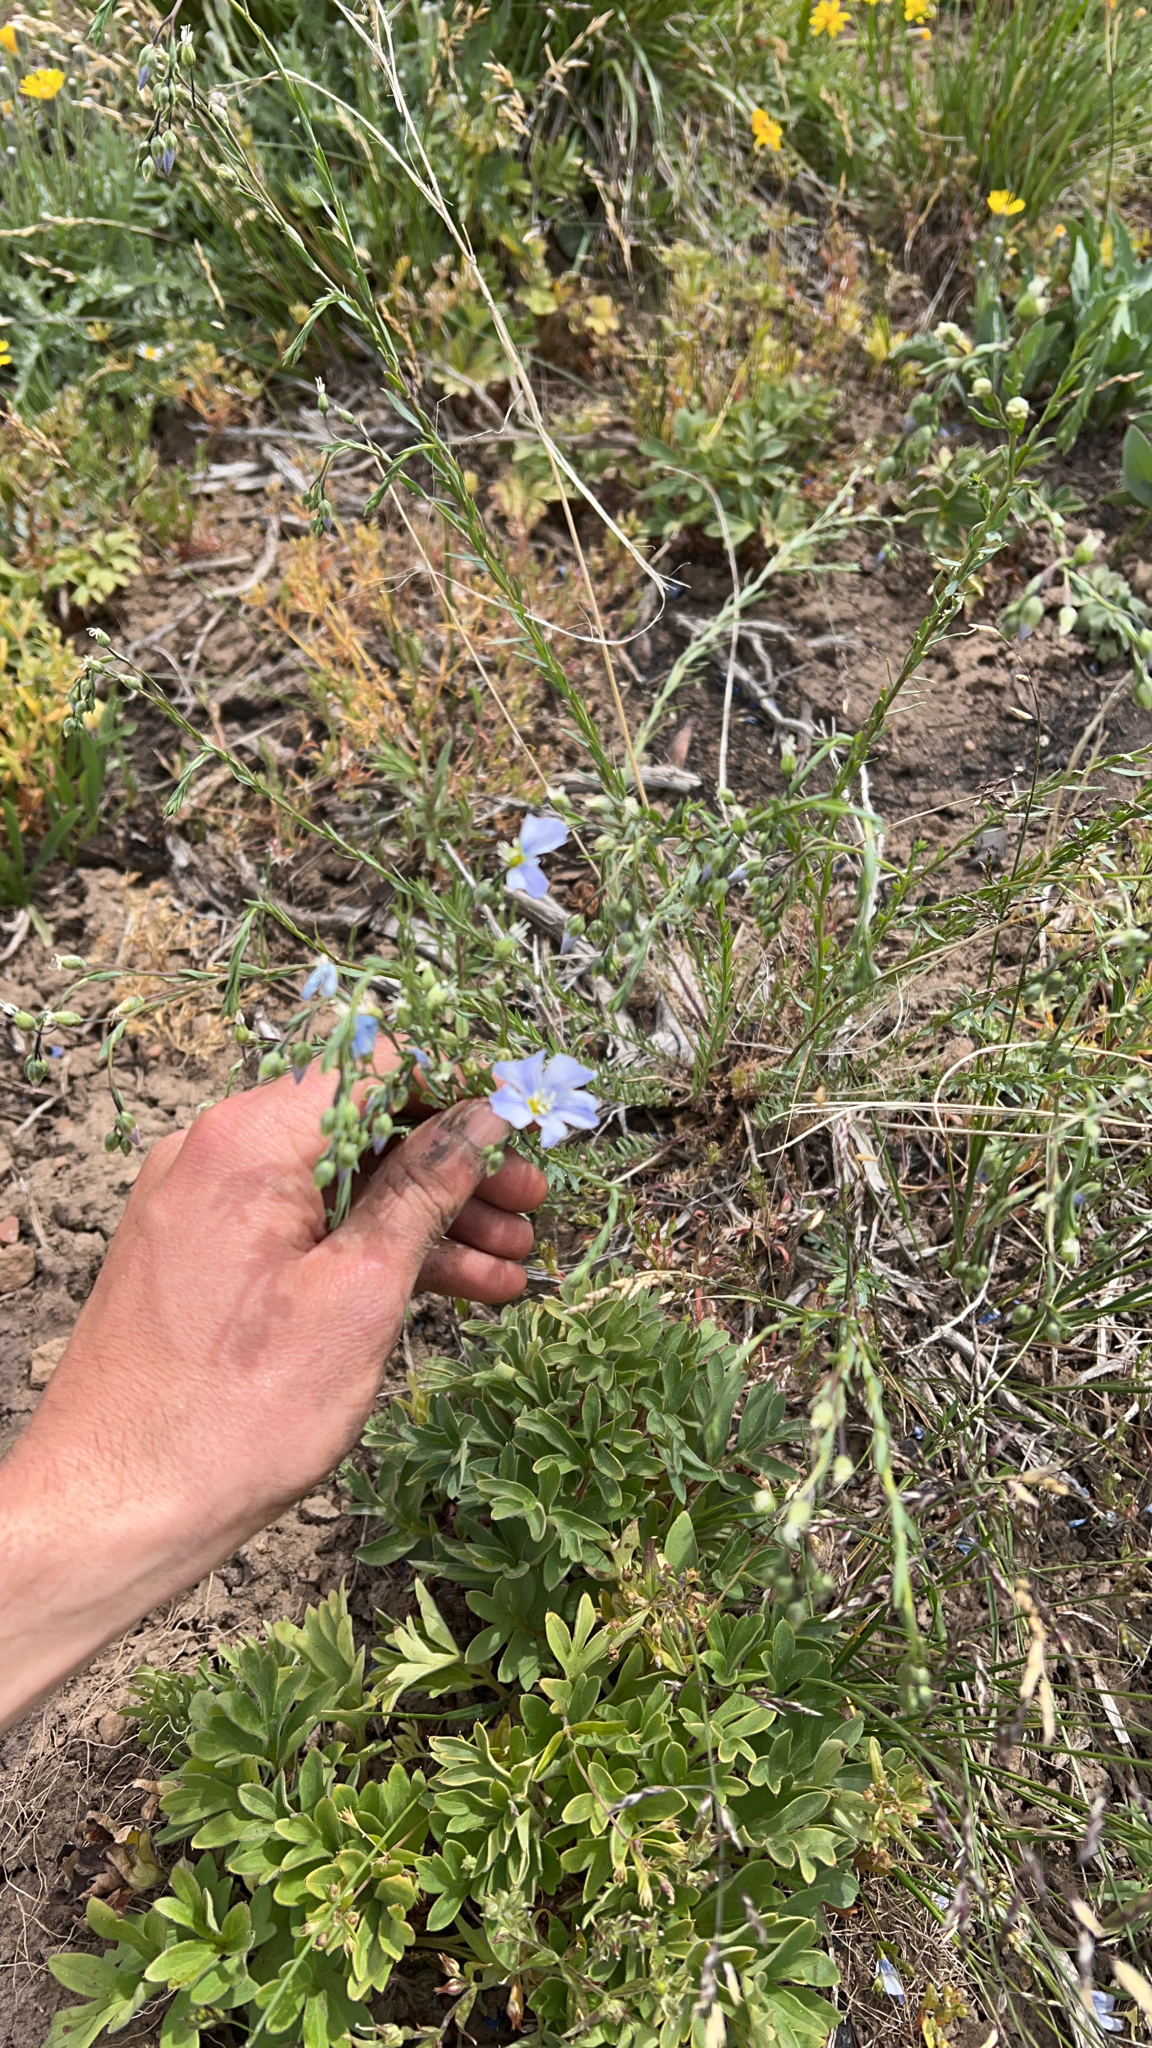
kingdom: Plantae
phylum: Tracheophyta
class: Magnoliopsida
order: Malpighiales
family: Linaceae
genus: Linum
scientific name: Linum lewisii
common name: Prairie flax
